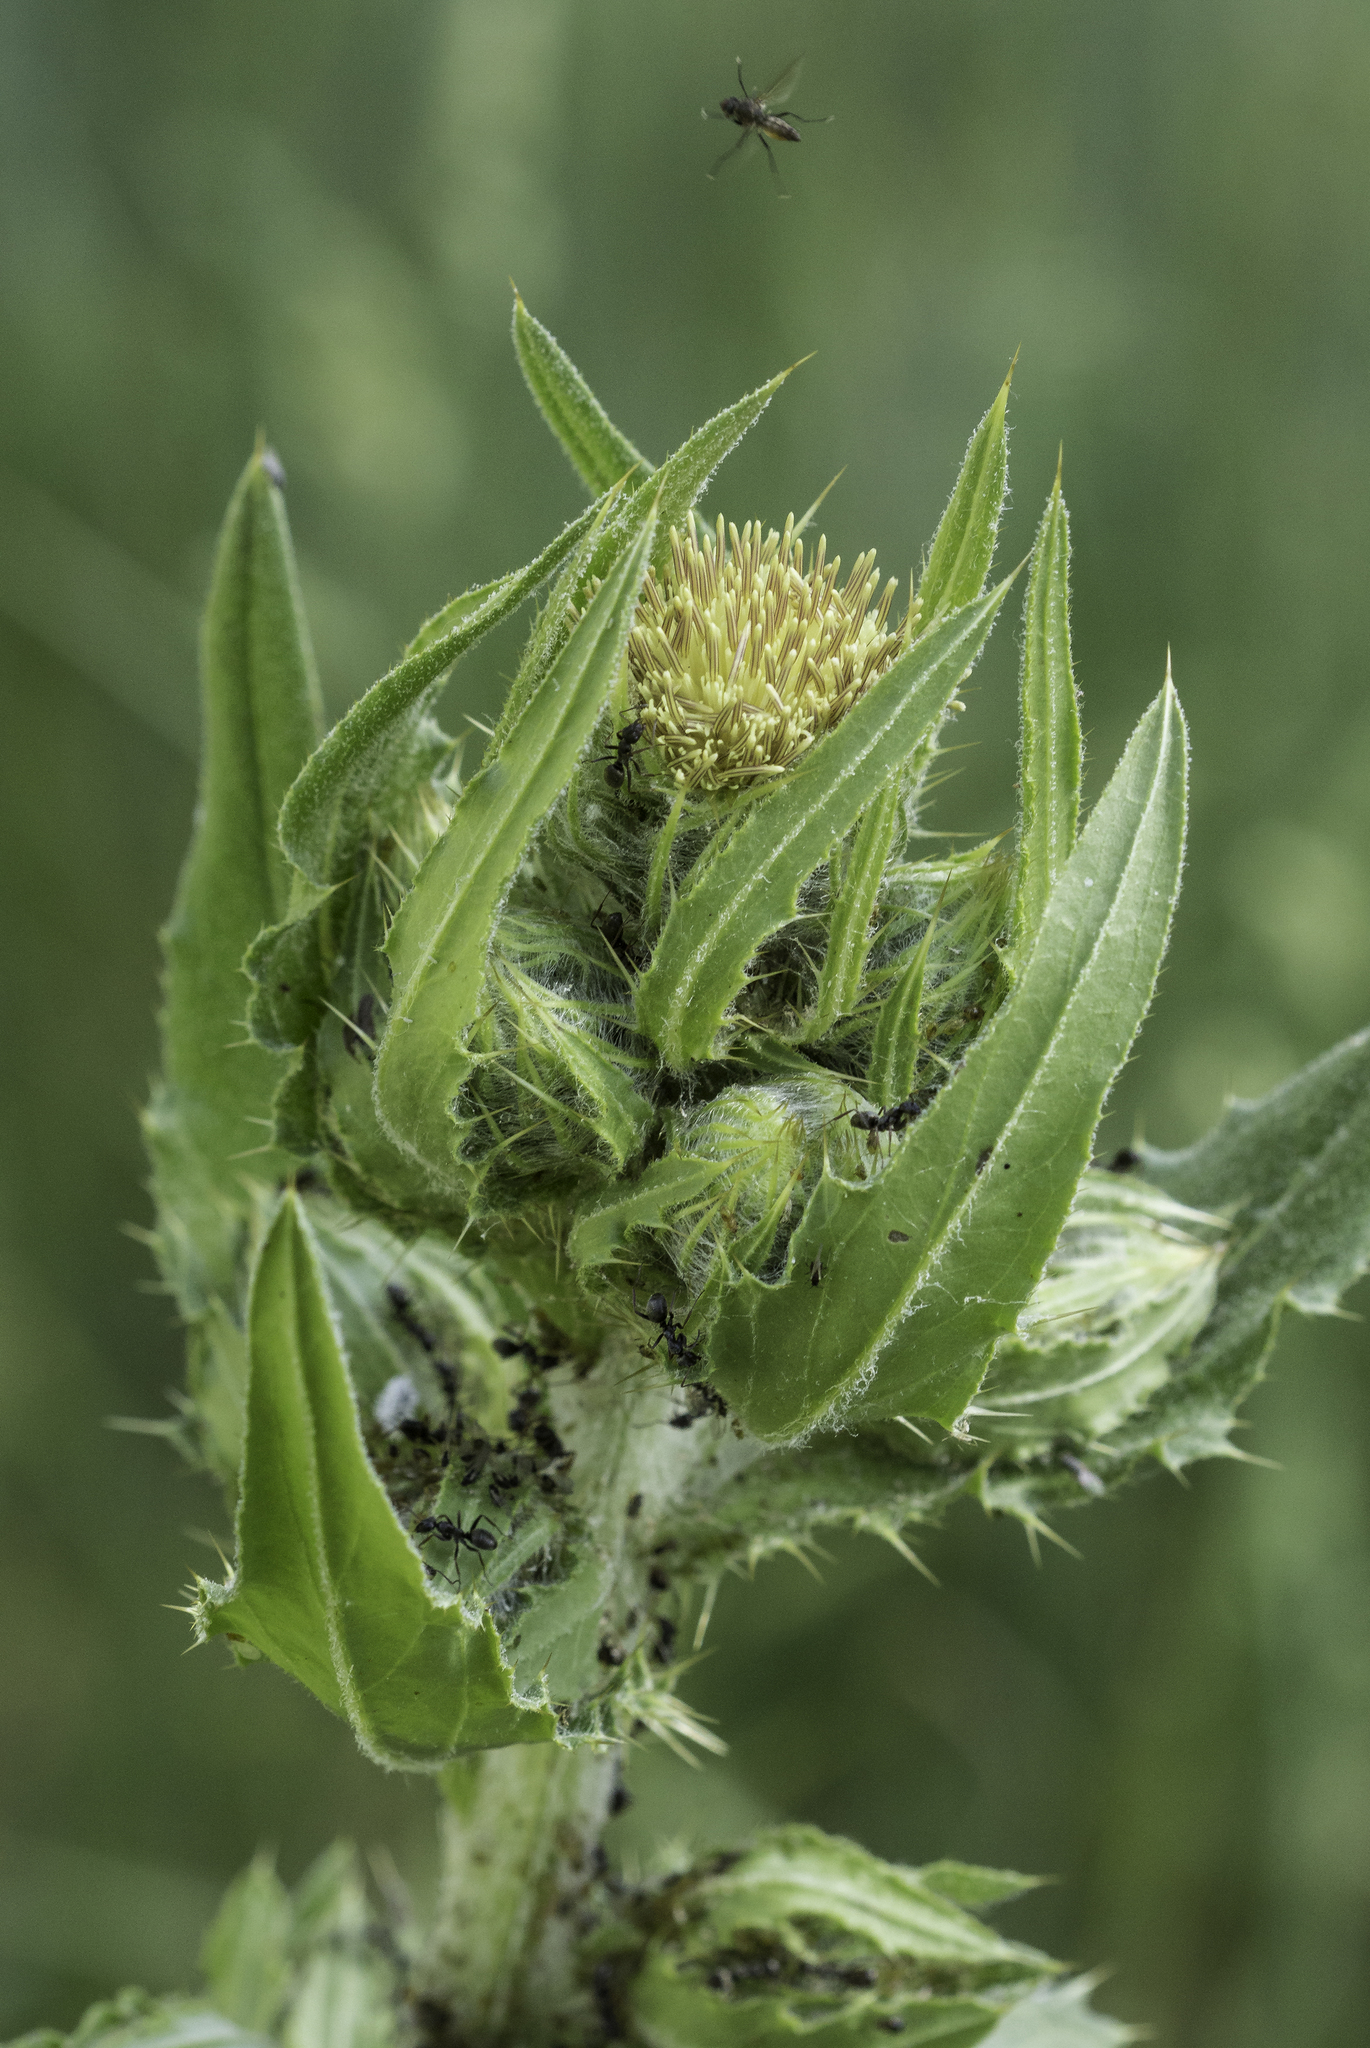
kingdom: Plantae
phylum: Tracheophyta
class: Magnoliopsida
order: Asterales
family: Asteraceae
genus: Cirsium
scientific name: Cirsium parryi
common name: Parry's thistle
